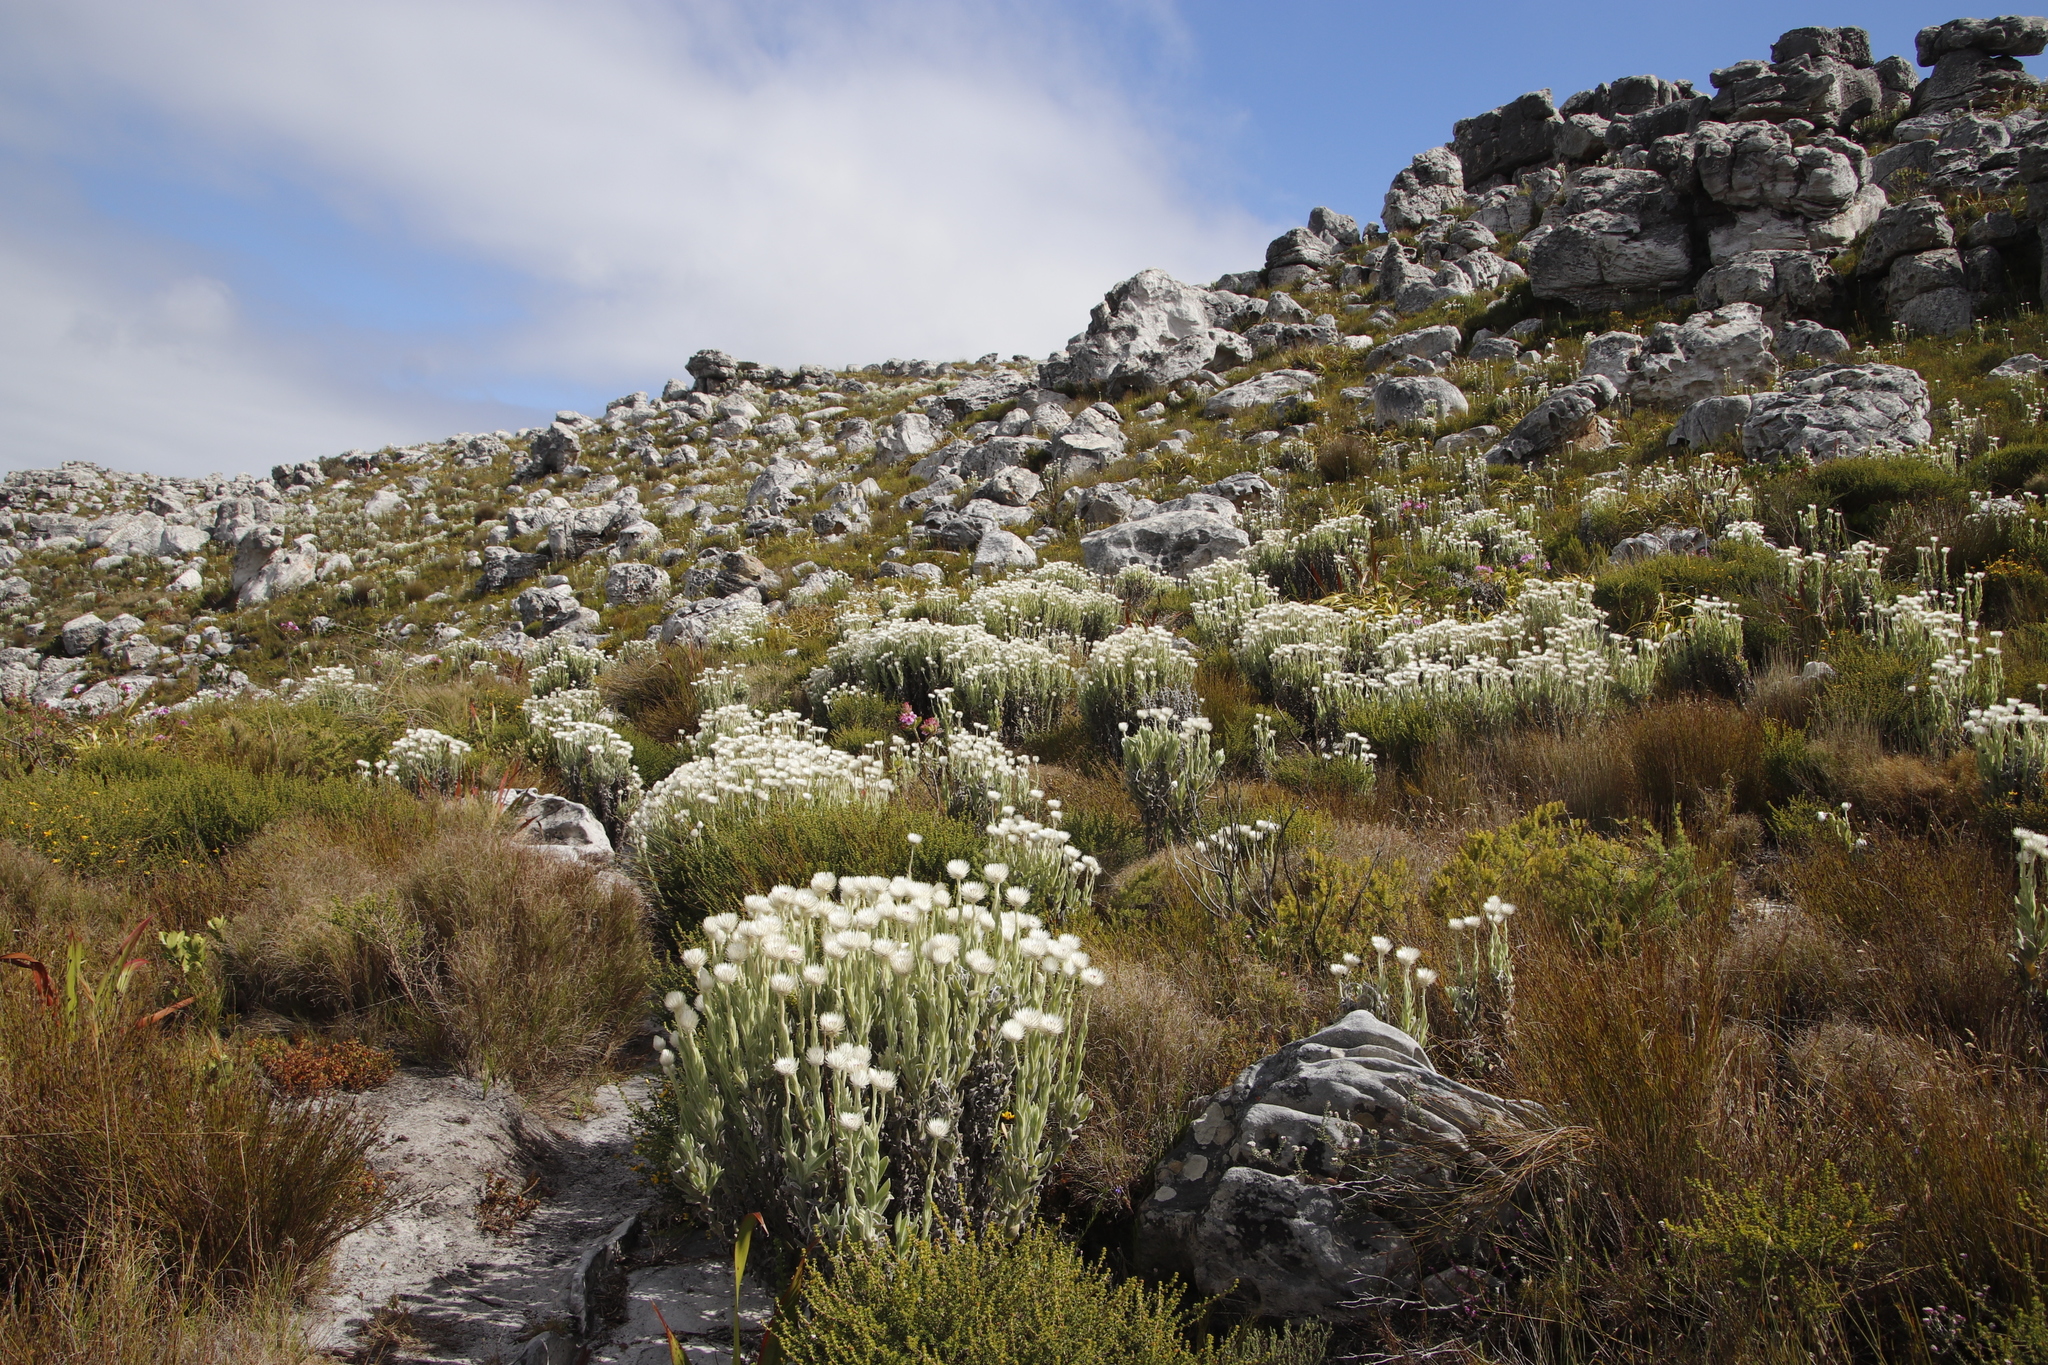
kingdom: Plantae
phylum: Tracheophyta
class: Magnoliopsida
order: Asterales
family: Asteraceae
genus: Syncarpha
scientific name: Syncarpha vestita
